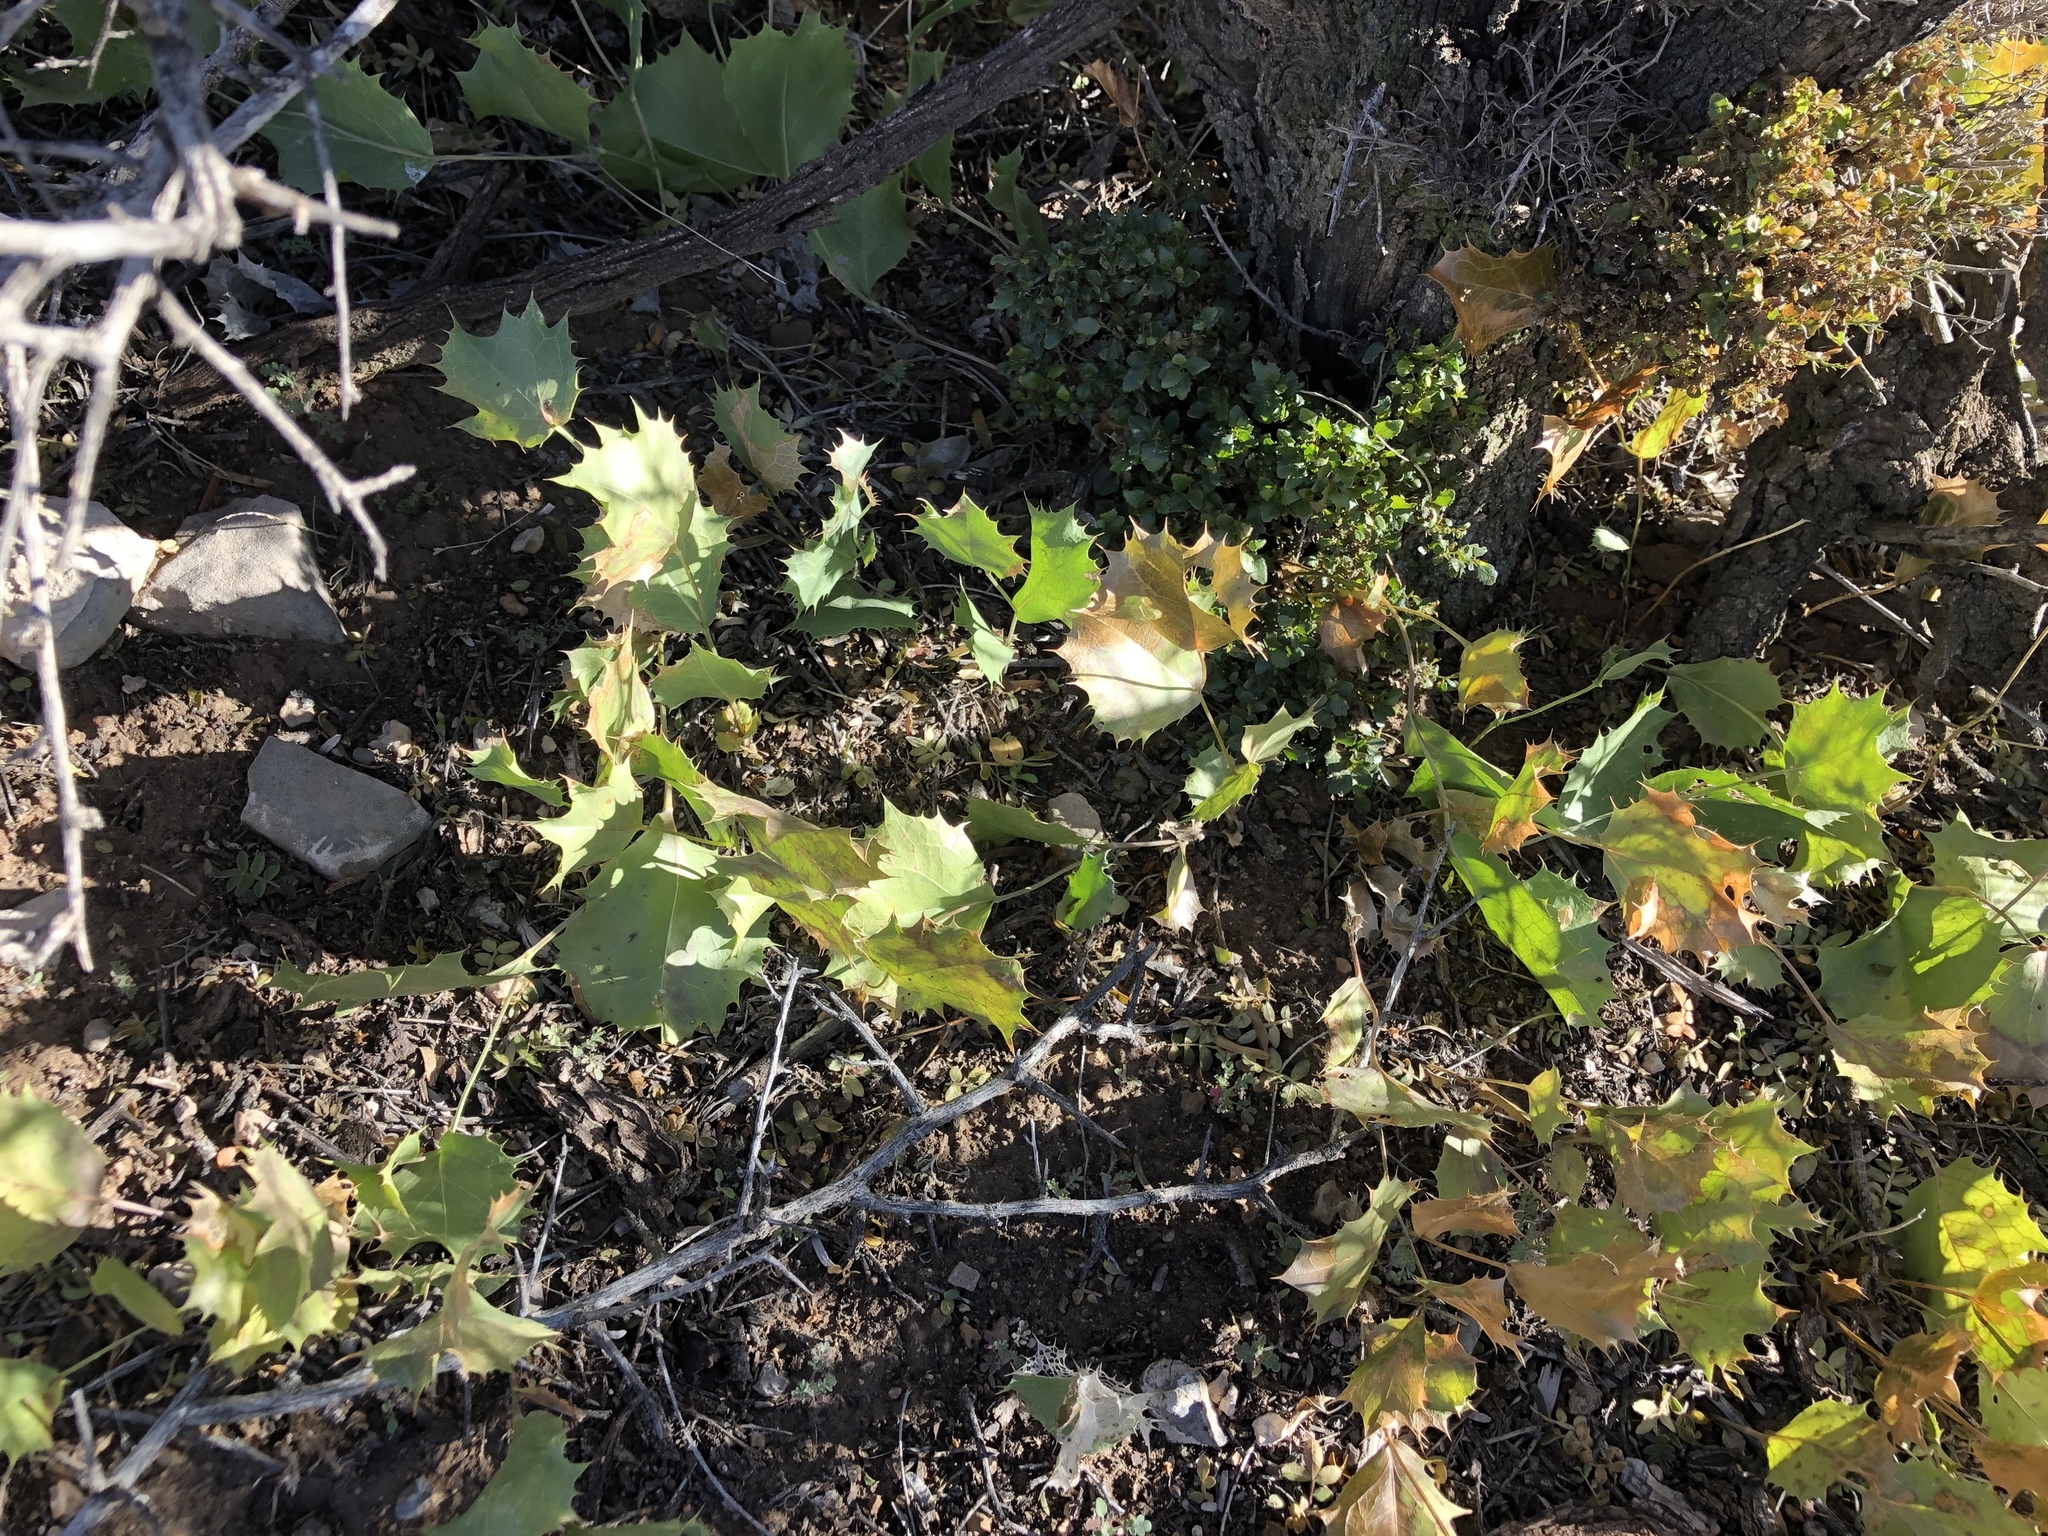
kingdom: Plantae
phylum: Tracheophyta
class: Magnoliopsida
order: Asterales
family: Asteraceae
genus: Acourtia
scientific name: Acourtia nana
